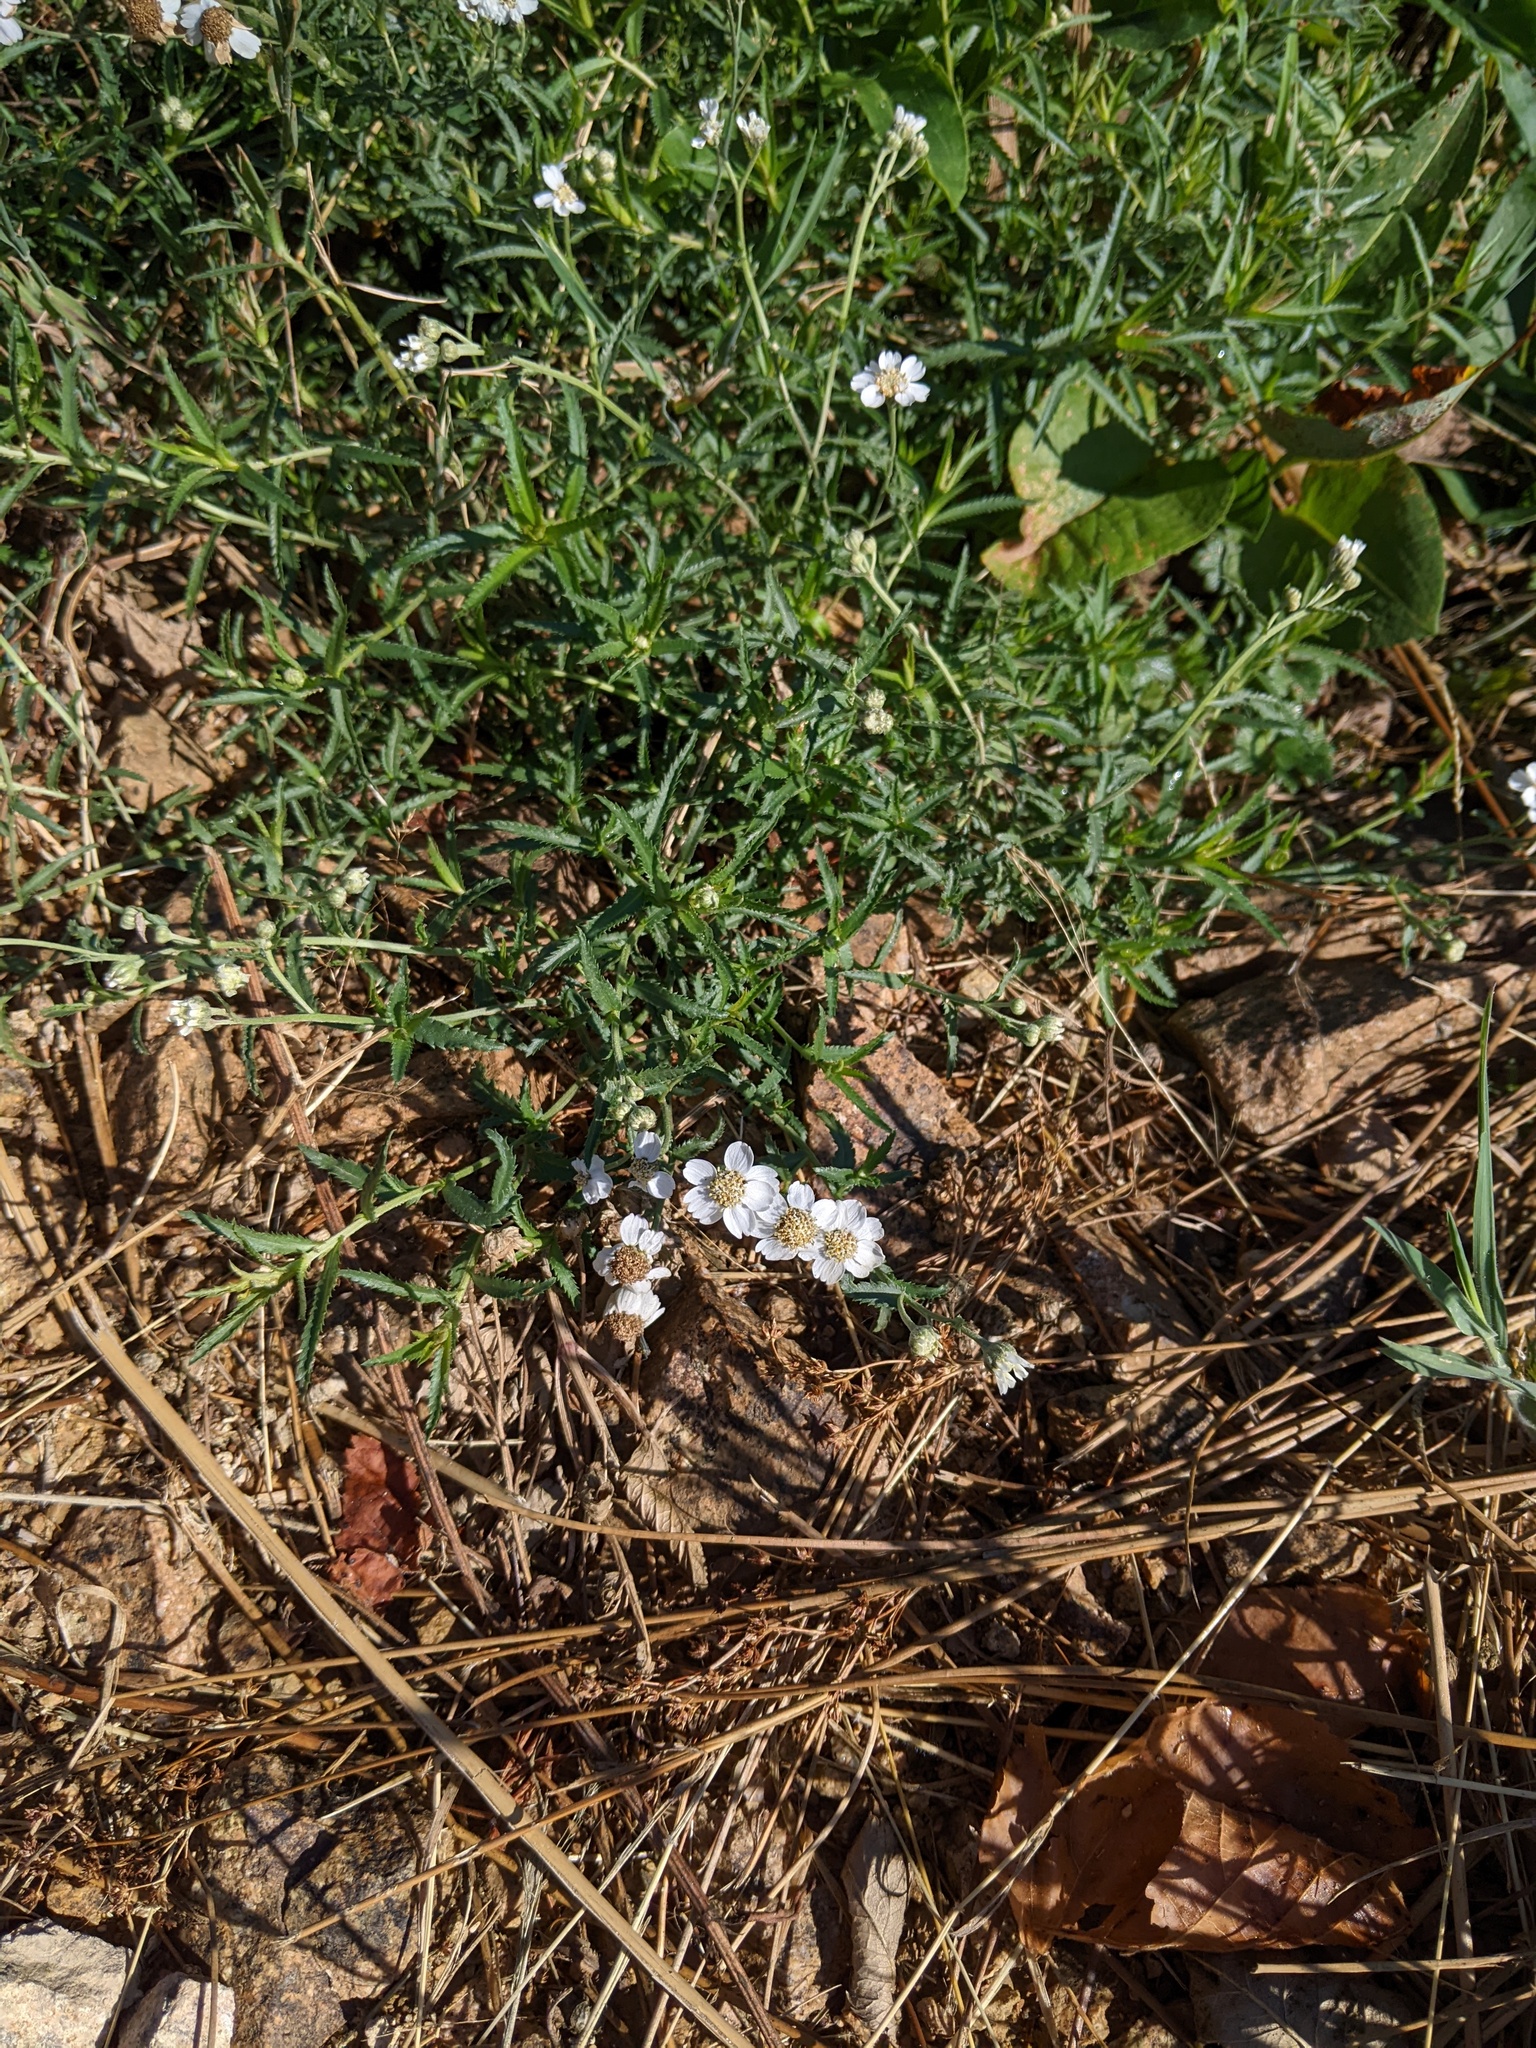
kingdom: Plantae
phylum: Tracheophyta
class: Magnoliopsida
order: Asterales
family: Asteraceae
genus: Achillea
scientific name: Achillea ptarmica
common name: Sneezeweed
